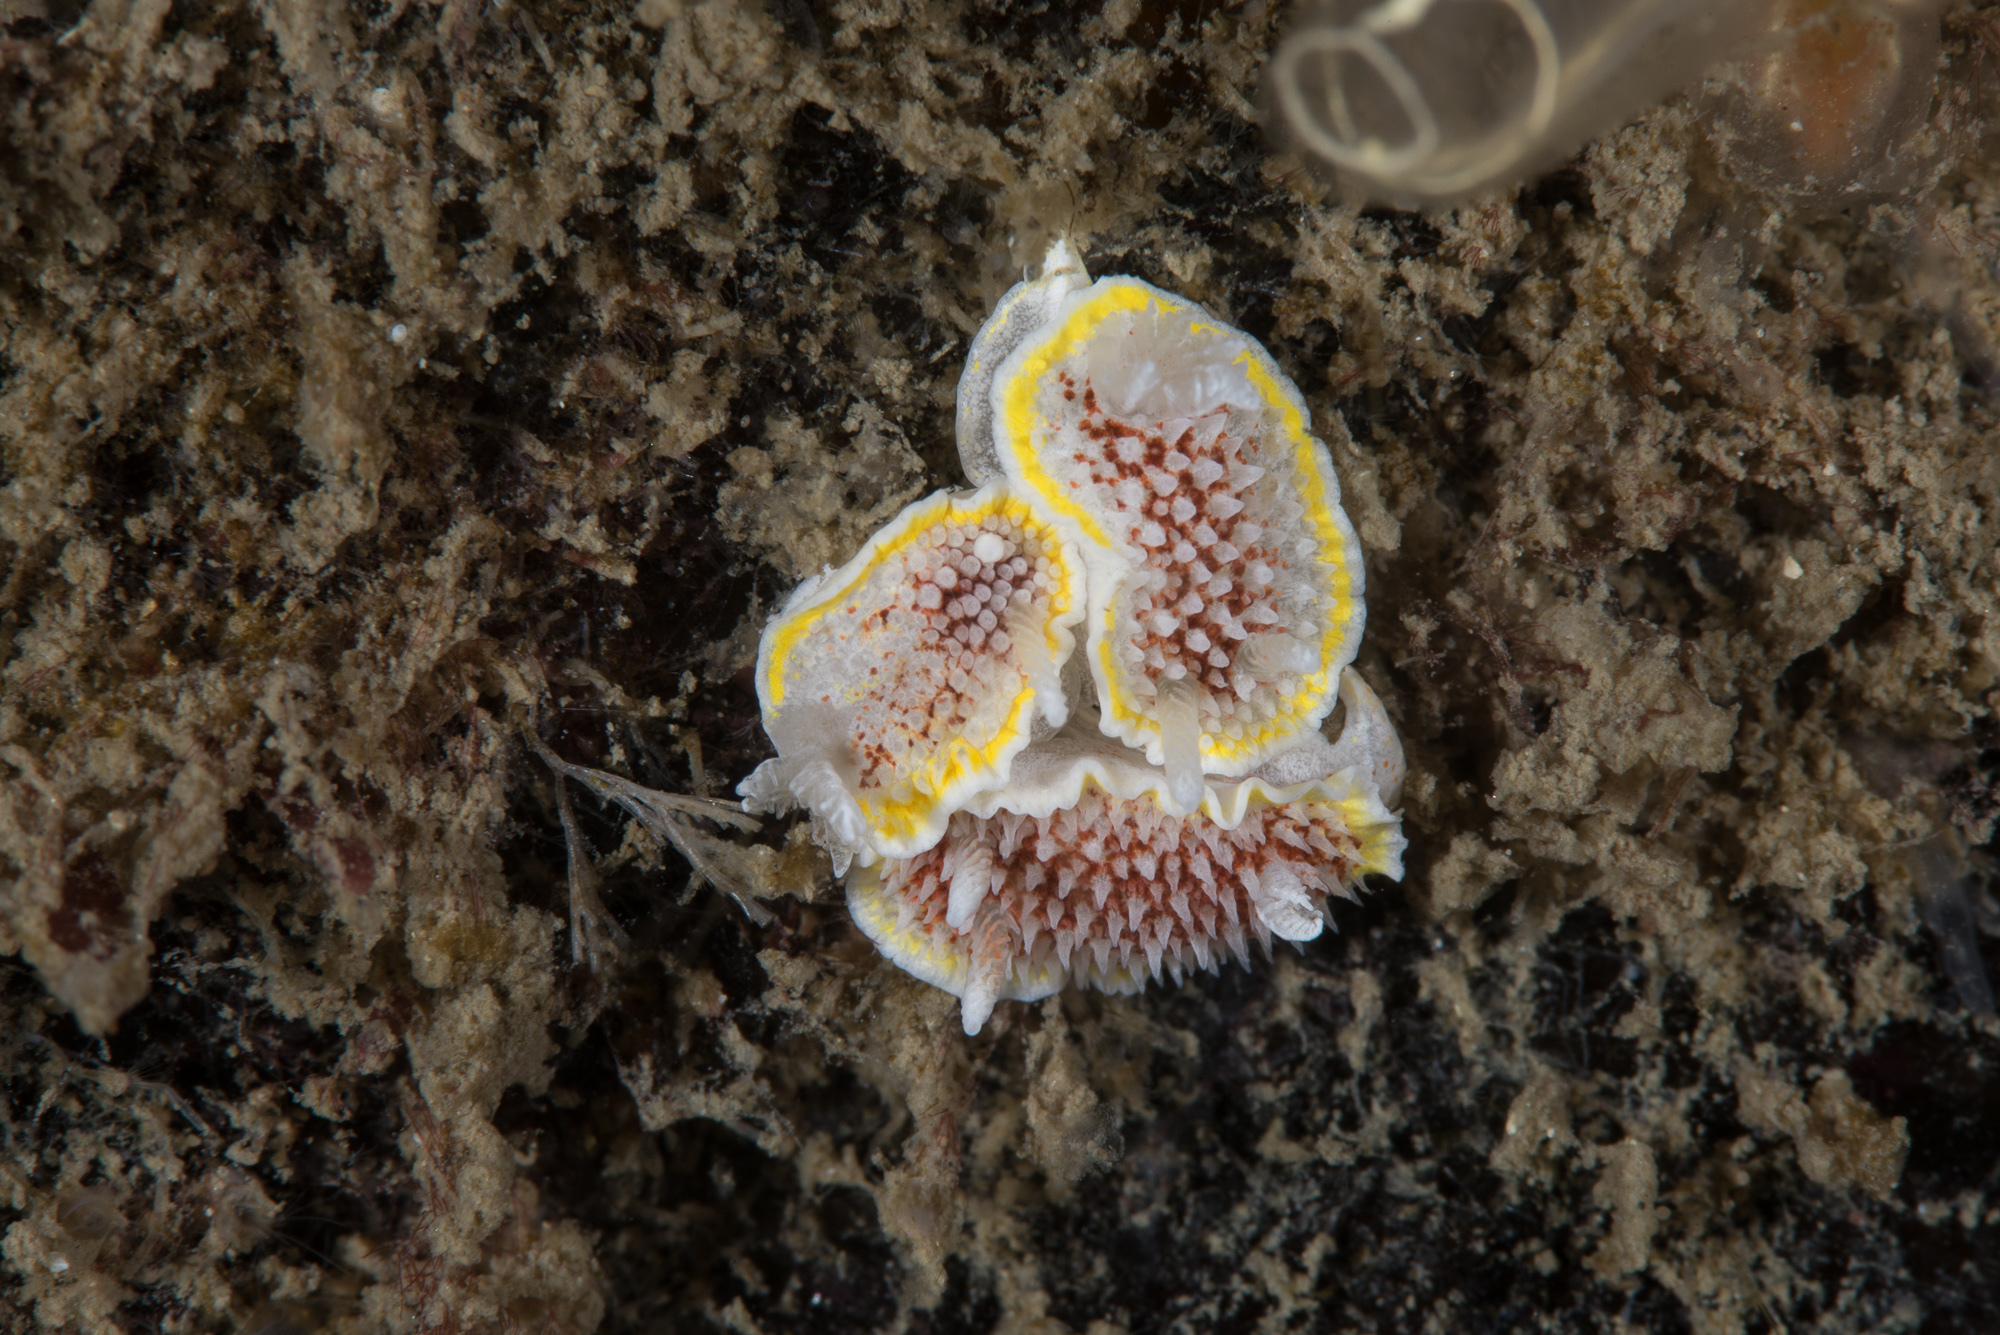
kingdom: Animalia
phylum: Mollusca
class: Gastropoda
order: Nudibranchia
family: Calycidorididae
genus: Diaphorodoris
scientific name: Diaphorodoris luteocincta
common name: Fried egg nudibranch
